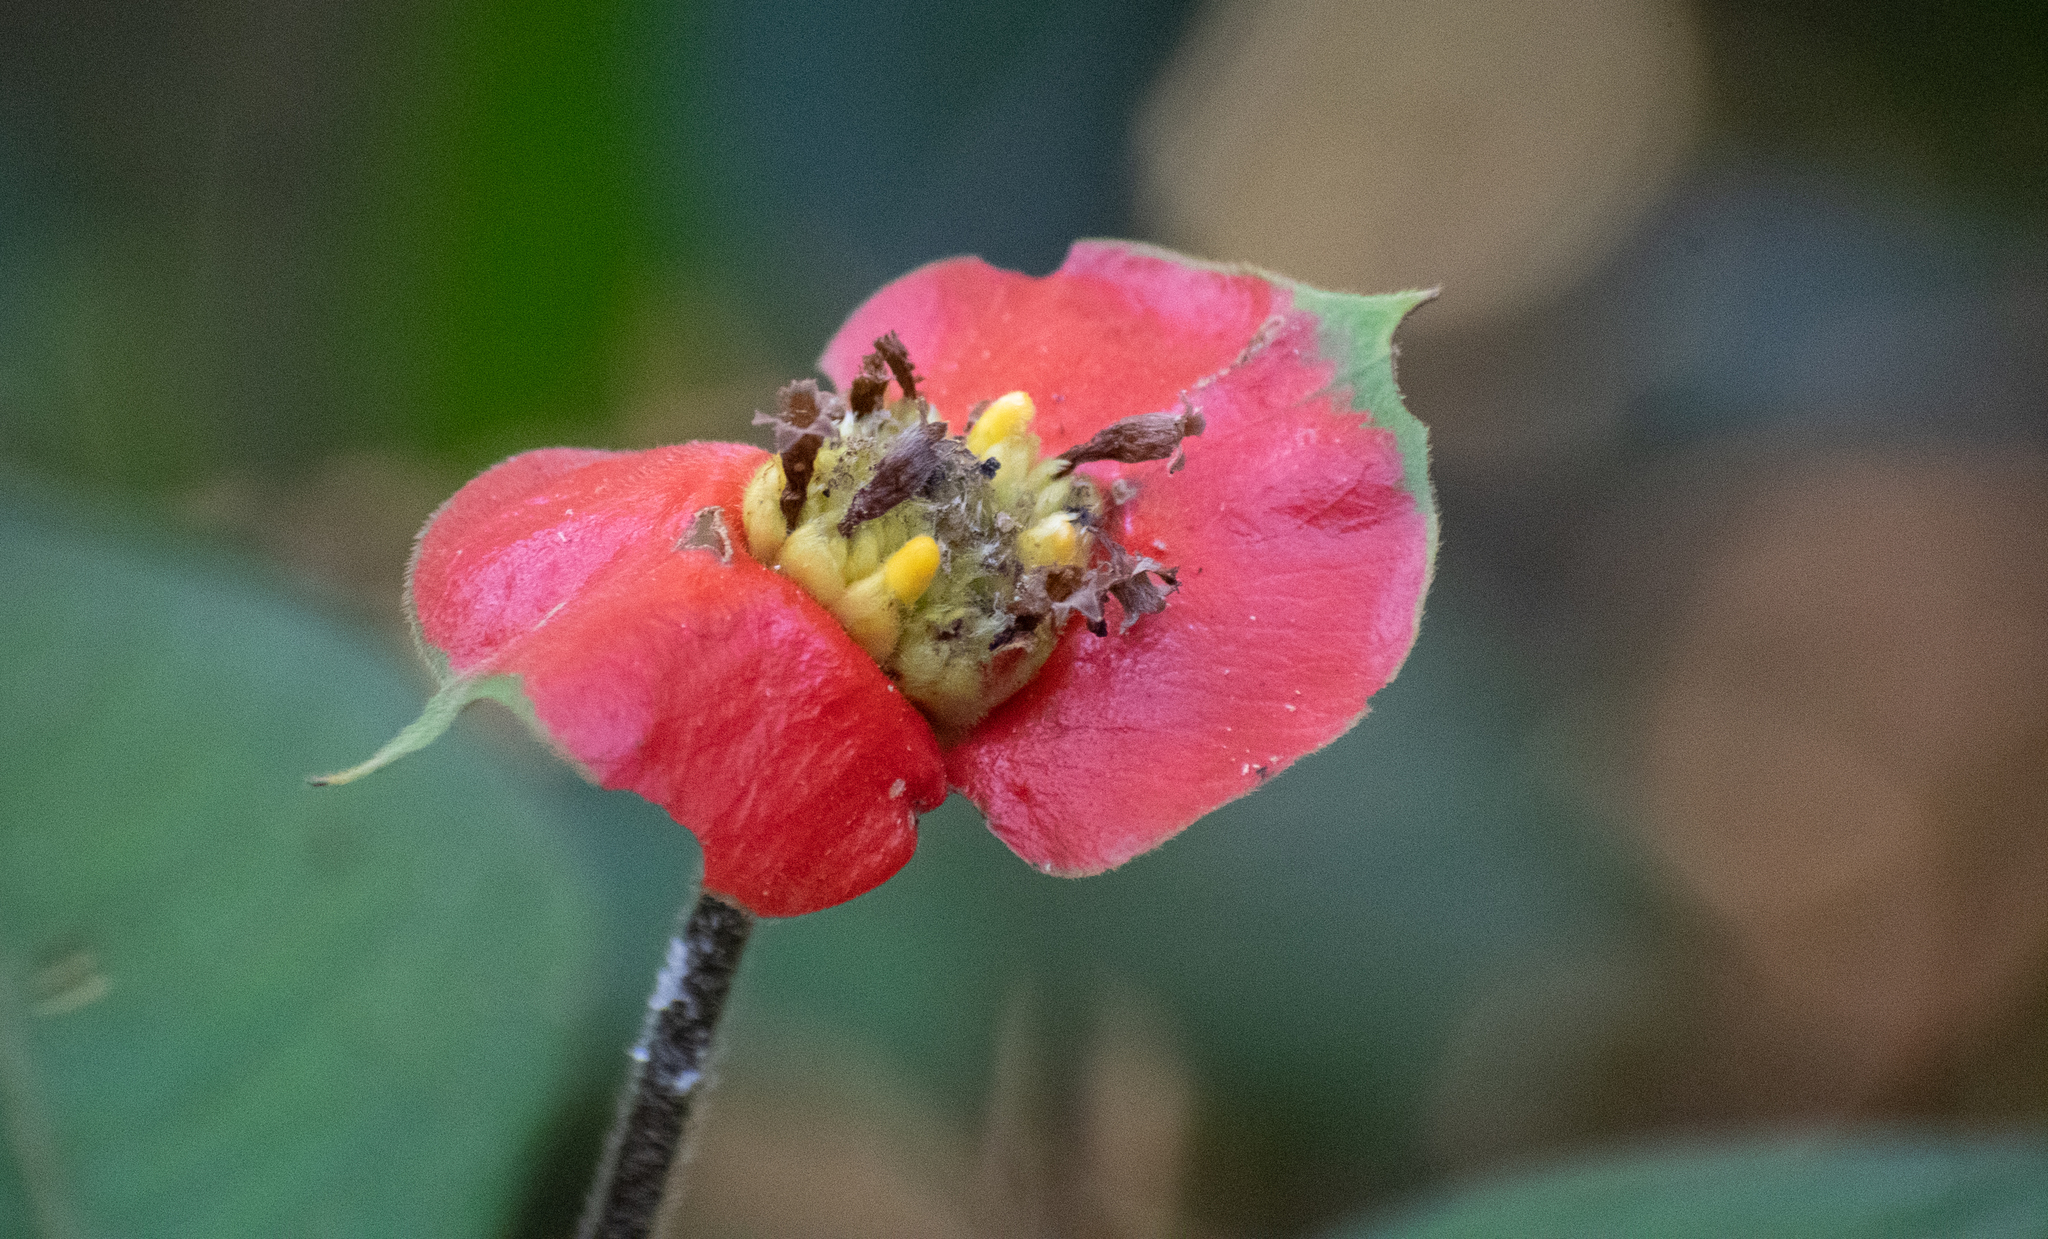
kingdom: Plantae
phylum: Tracheophyta
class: Magnoliopsida
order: Gentianales
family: Rubiaceae
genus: Palicourea
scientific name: Palicourea tomentosa
